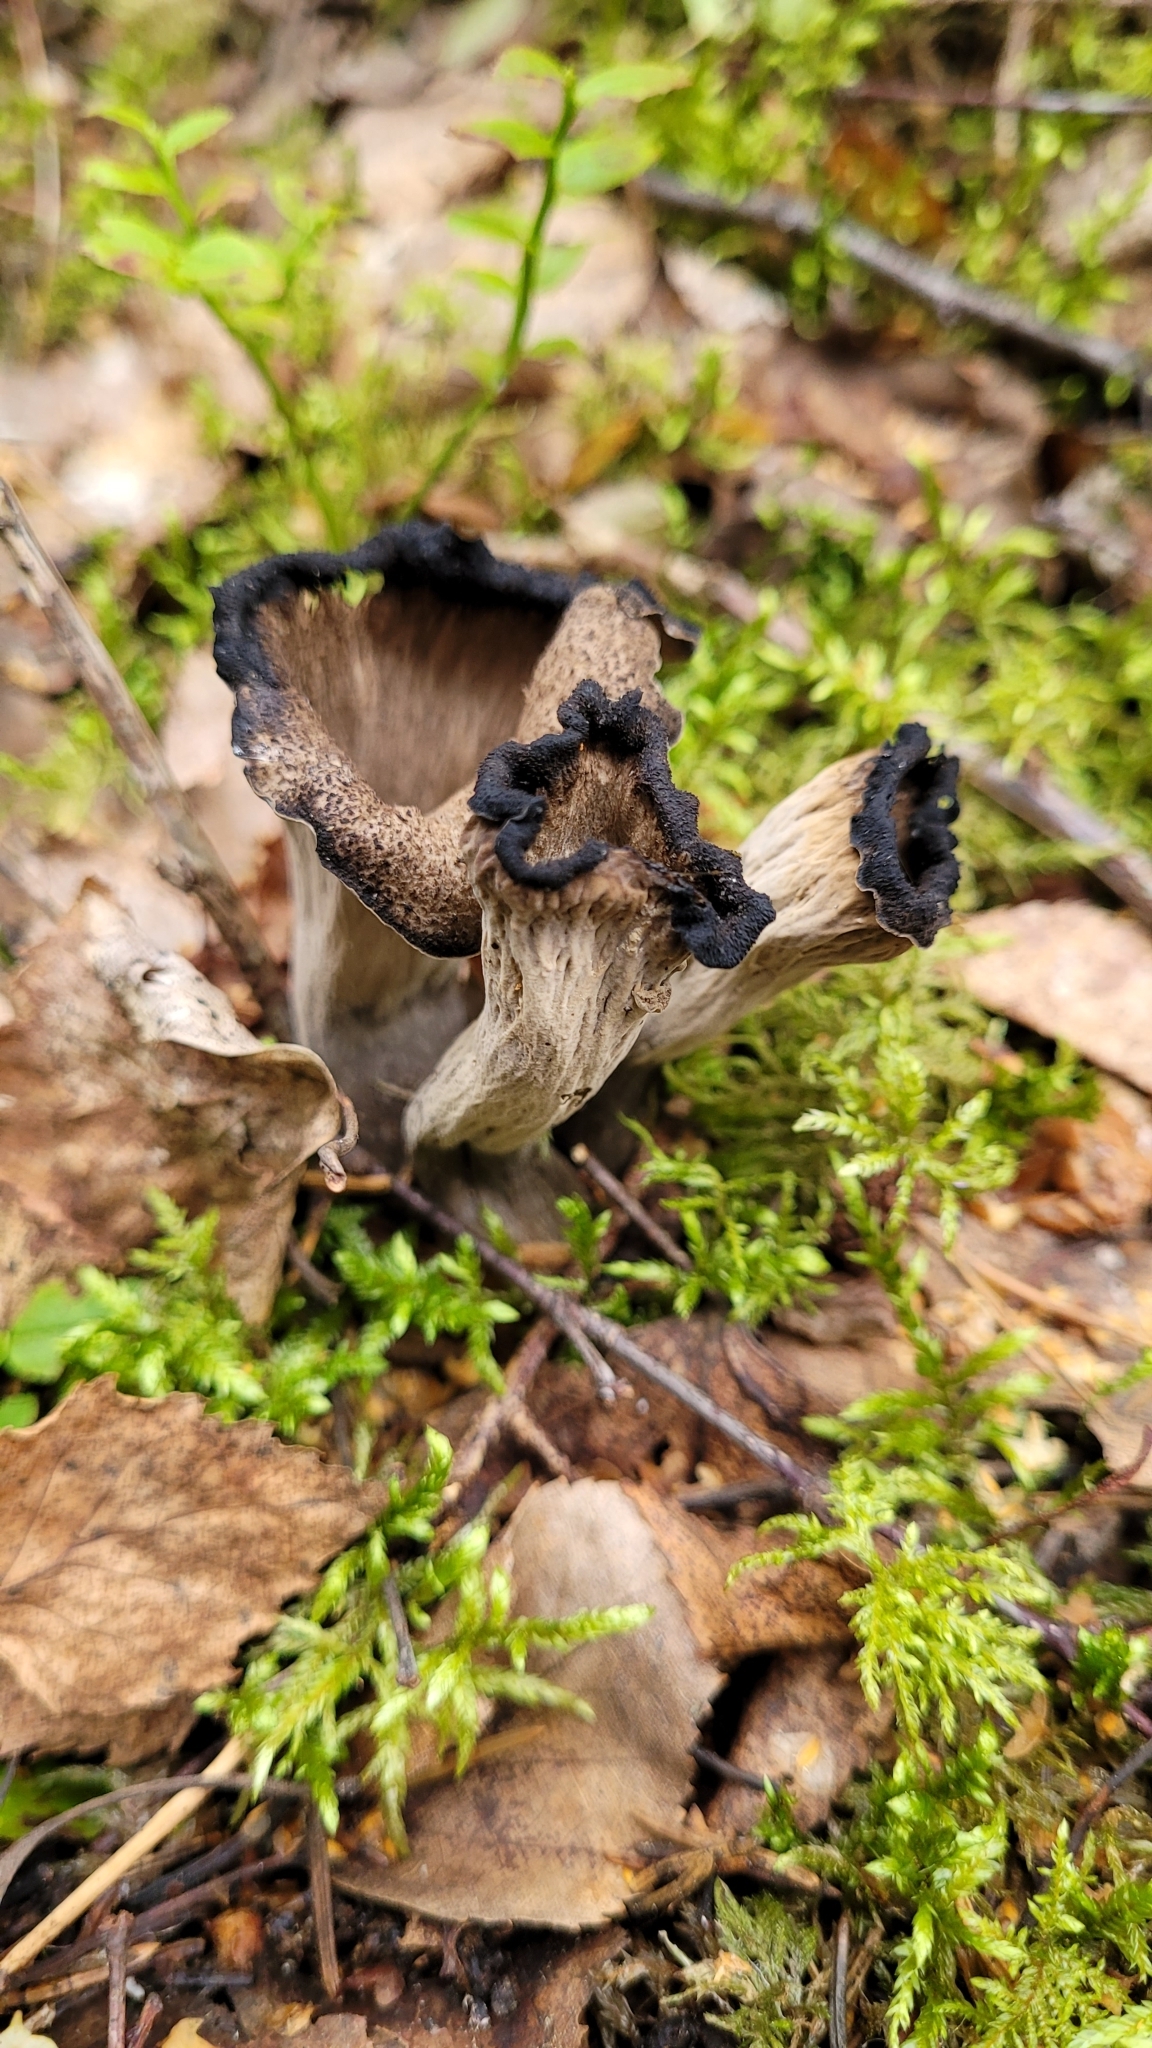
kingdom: Fungi
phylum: Basidiomycota
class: Agaricomycetes
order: Cantharellales
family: Hydnaceae
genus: Craterellus
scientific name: Craterellus cornucopioides
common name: Horn of plenty
